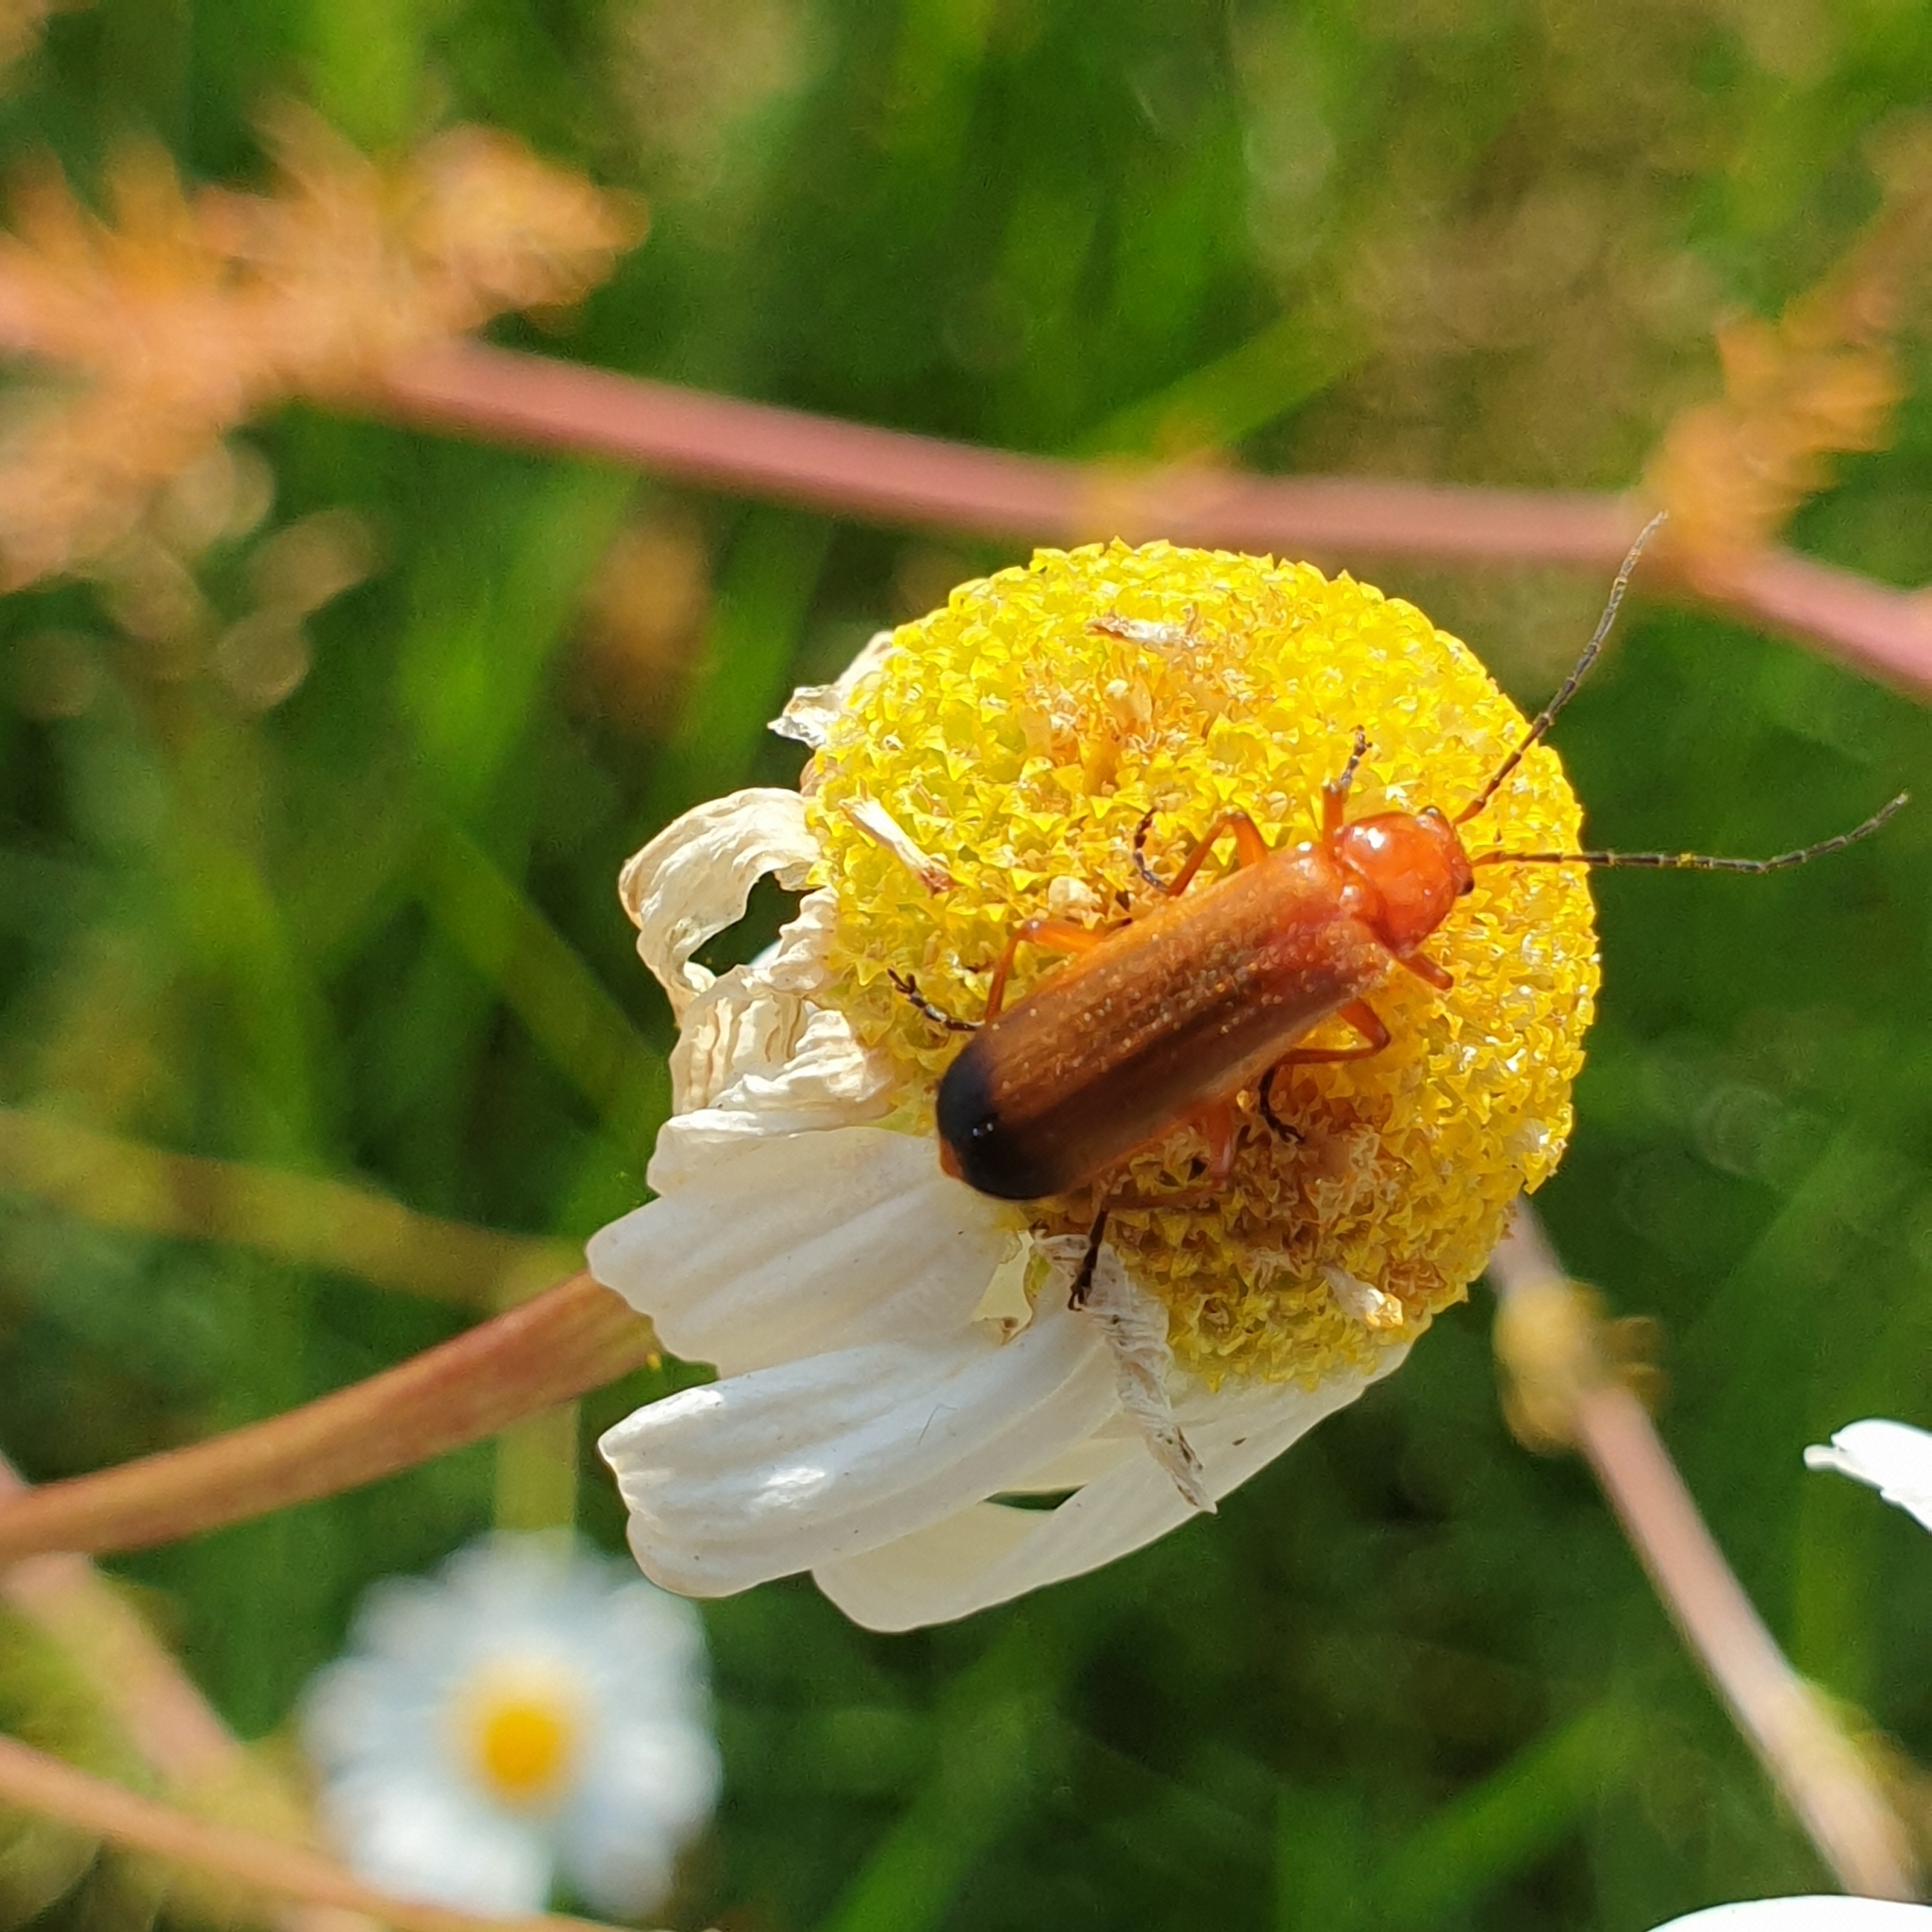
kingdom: Animalia
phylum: Arthropoda
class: Insecta
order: Coleoptera
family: Cantharidae
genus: Rhagonycha
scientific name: Rhagonycha fulva
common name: Common red soldier beetle
